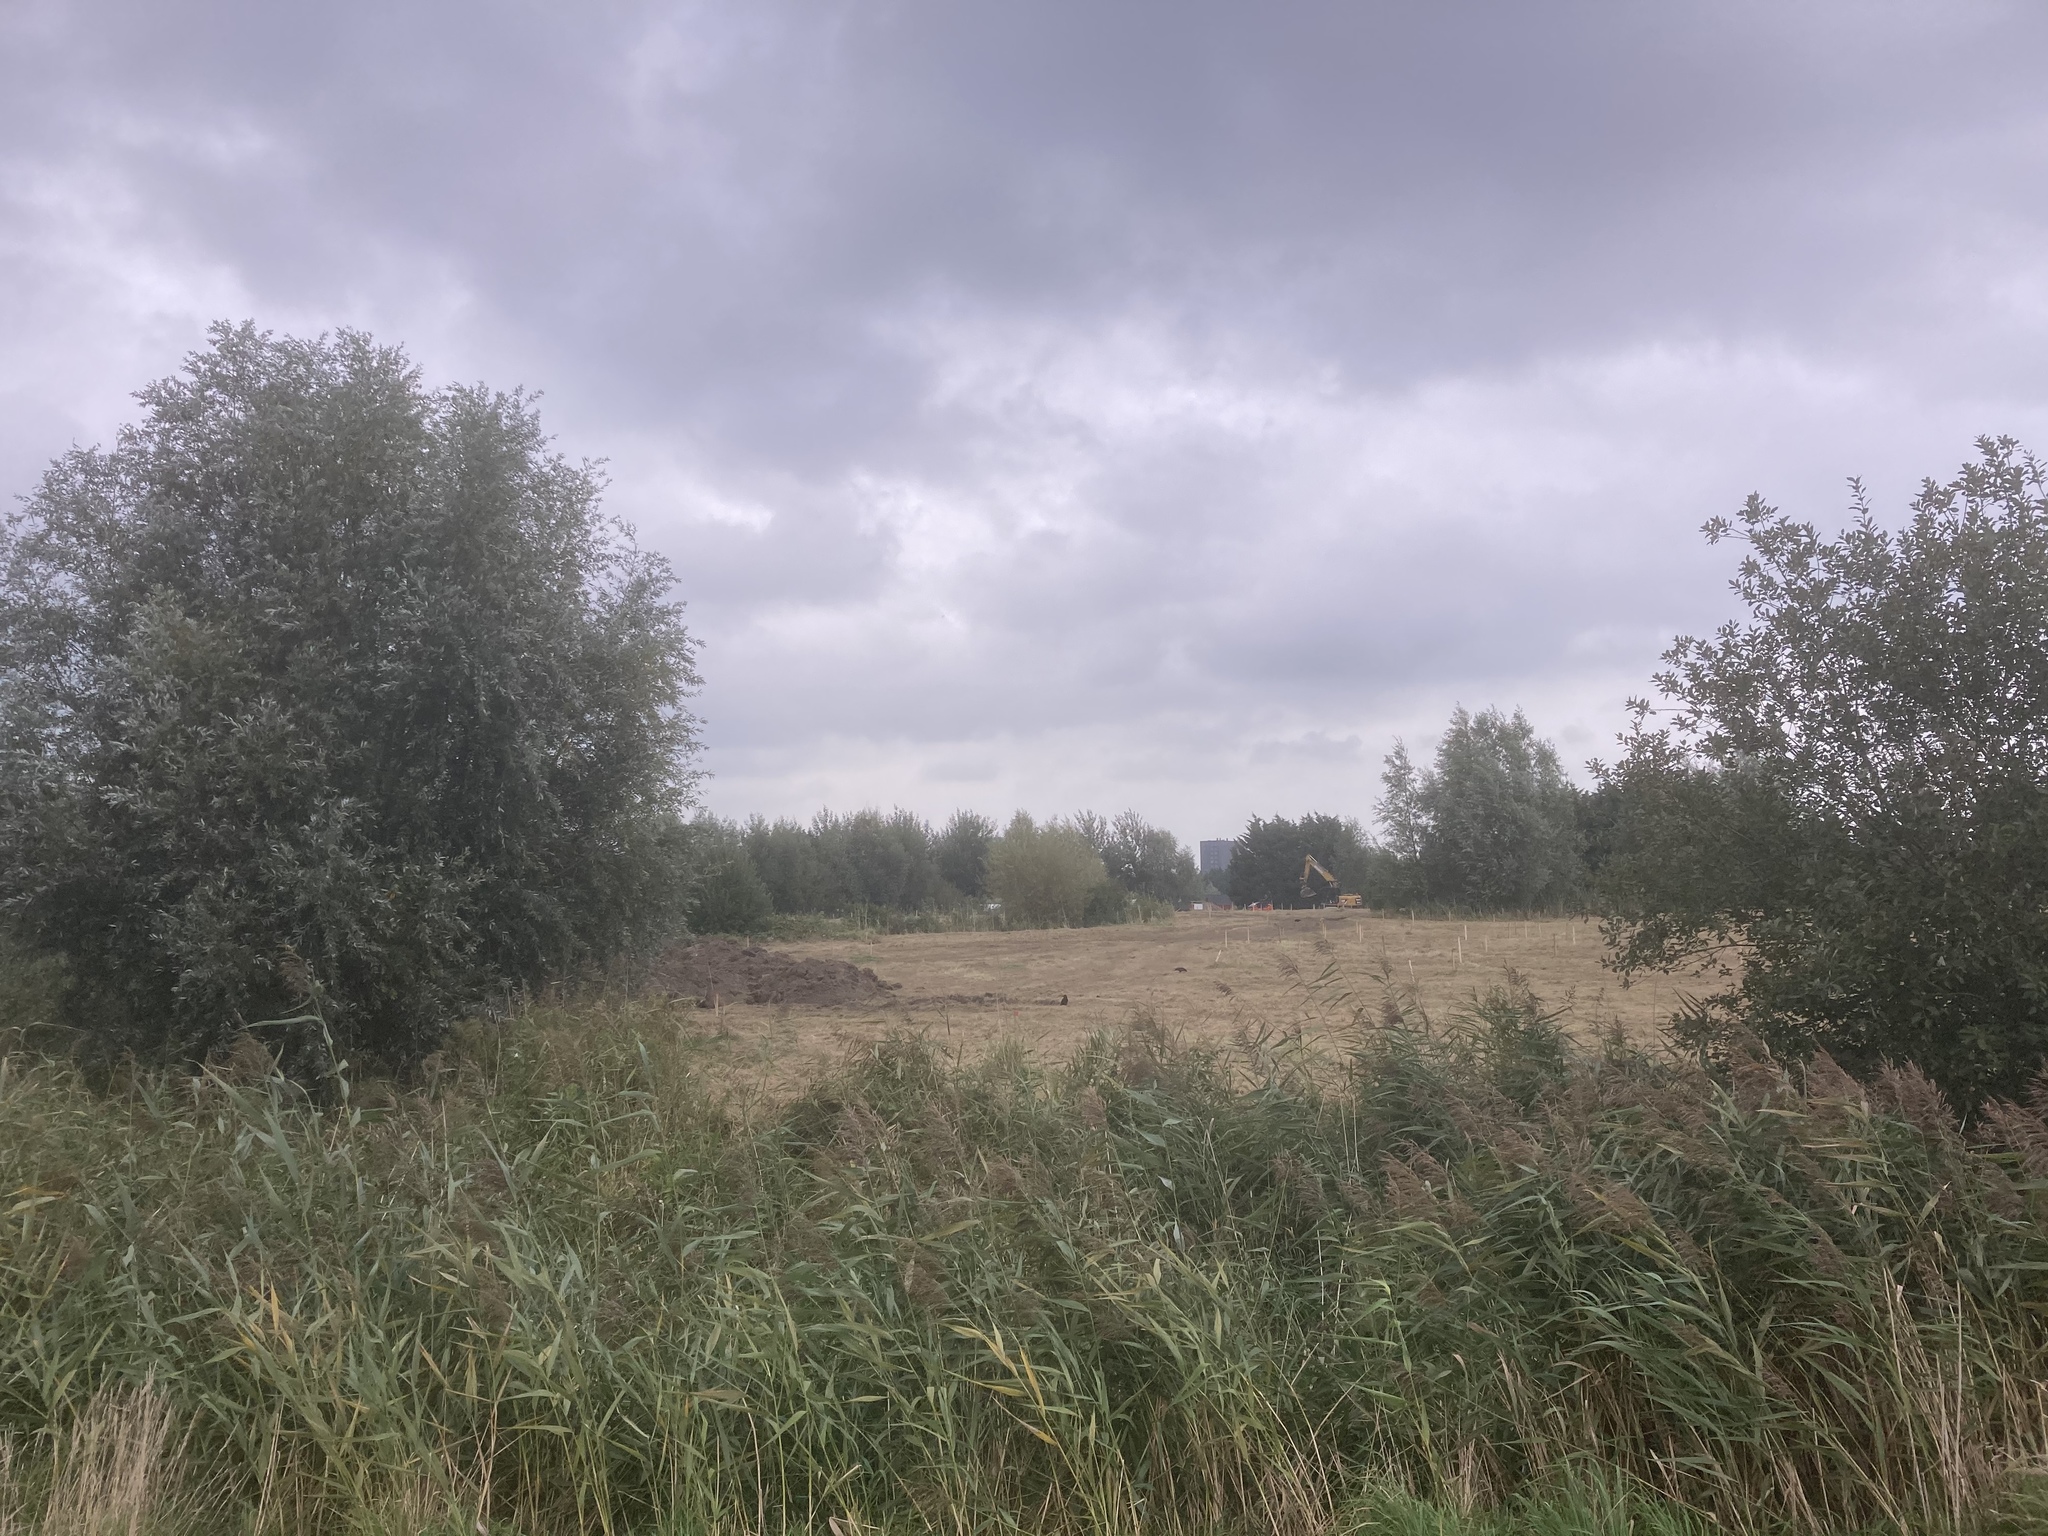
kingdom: Plantae
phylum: Tracheophyta
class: Liliopsida
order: Poales
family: Poaceae
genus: Phragmites
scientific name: Phragmites australis
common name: Common reed
